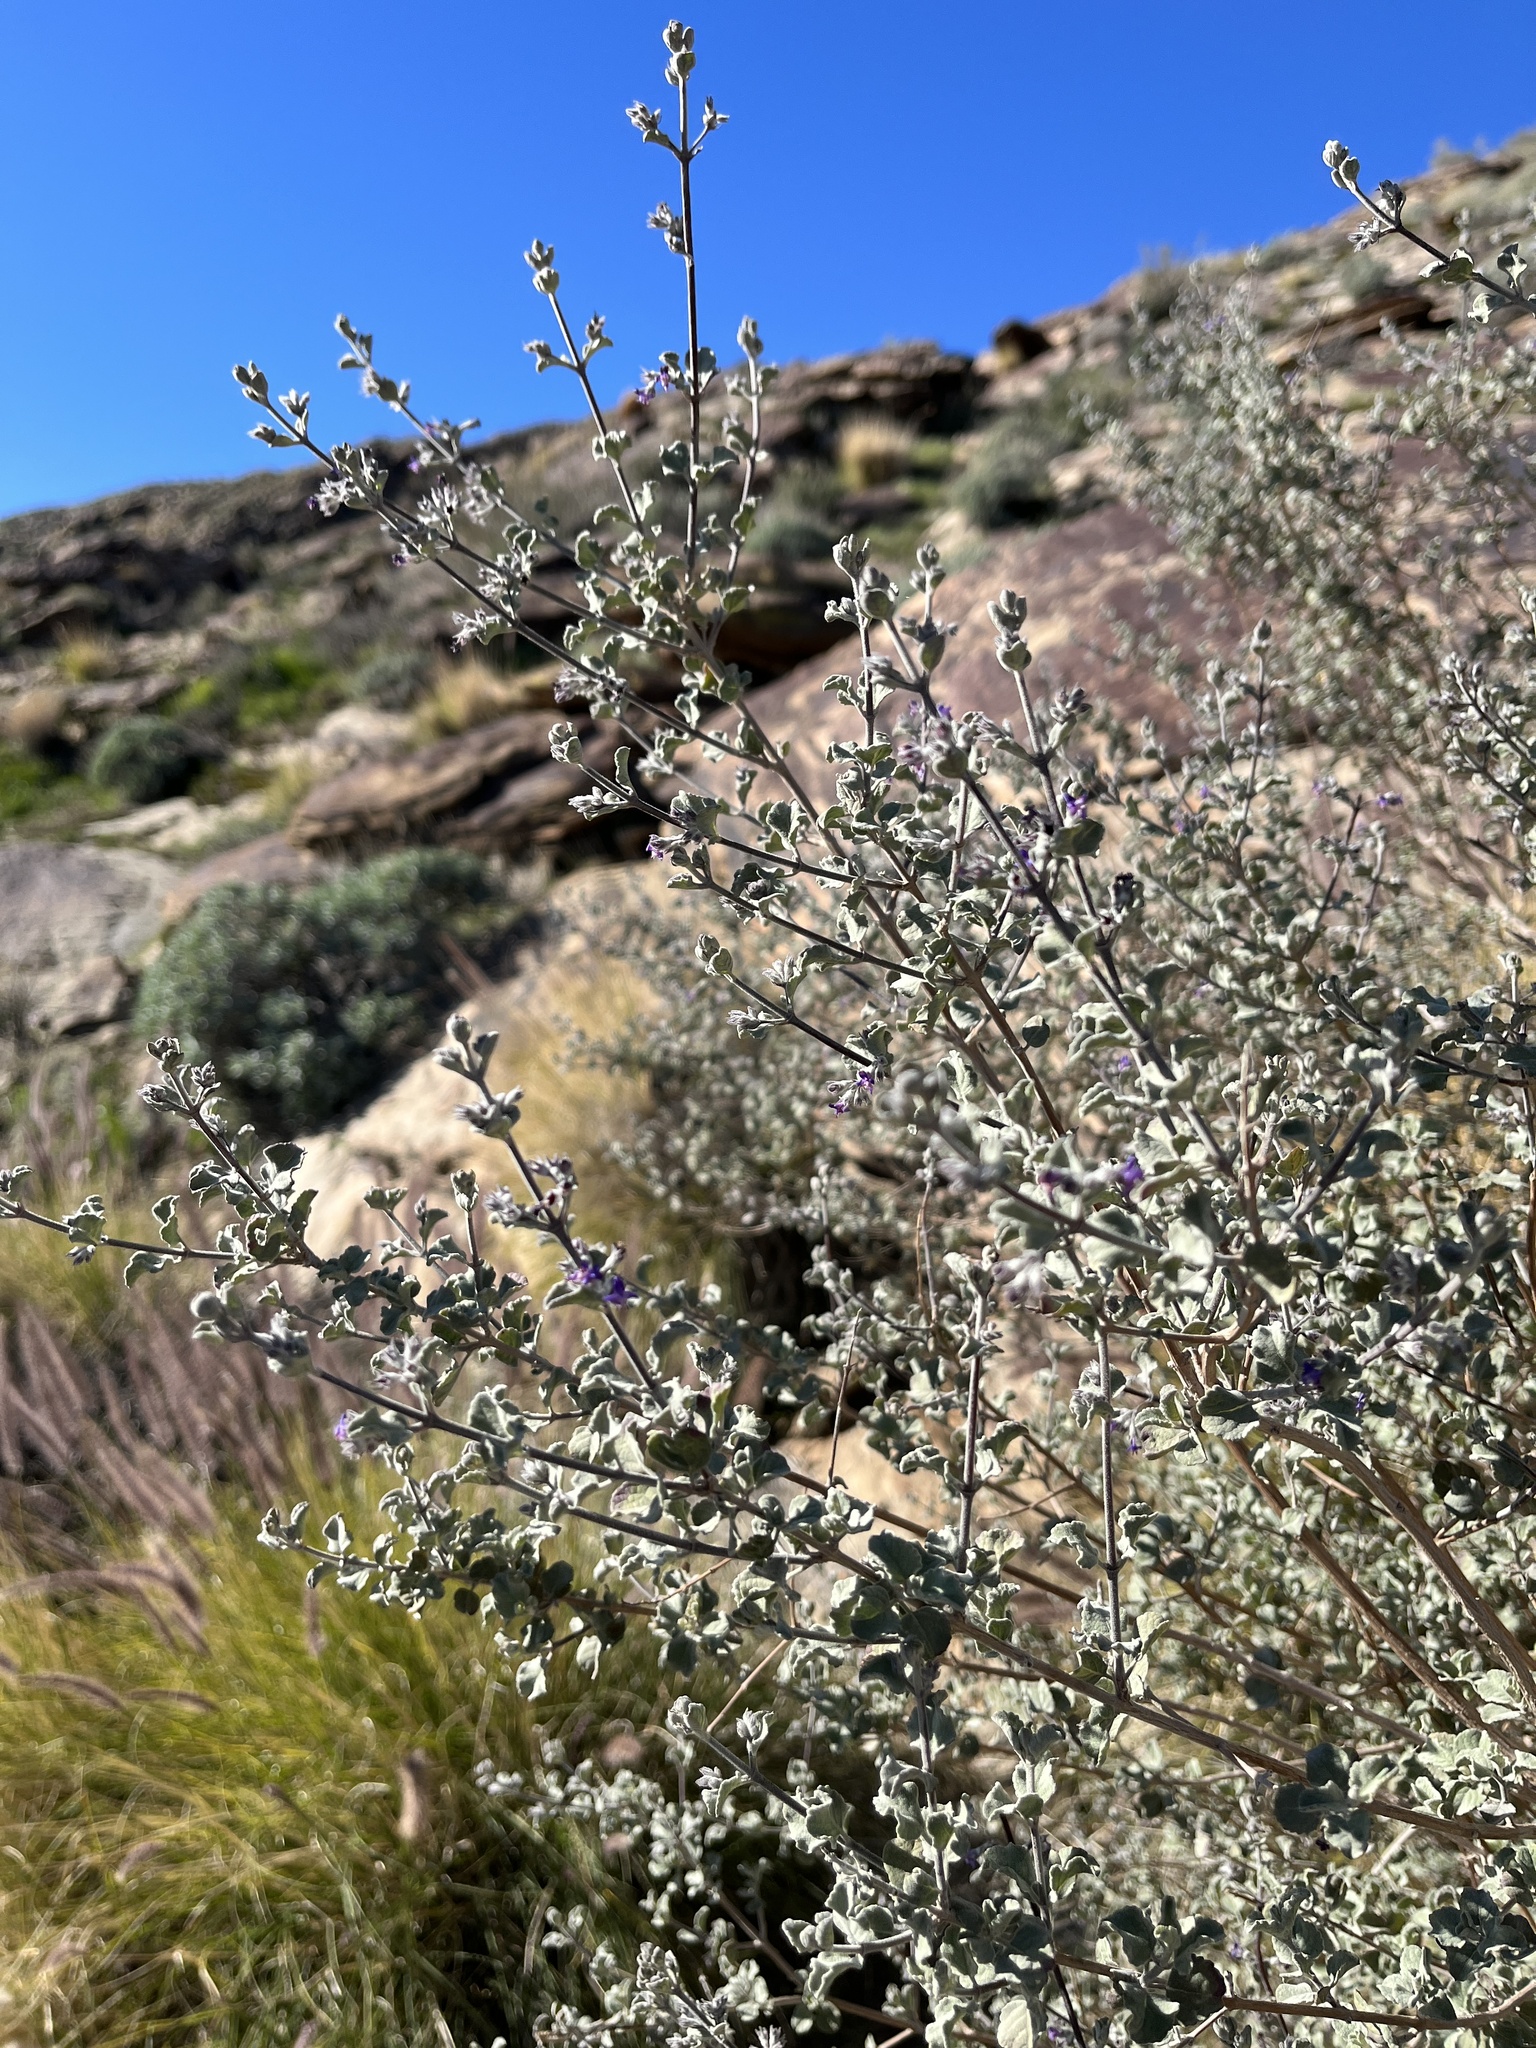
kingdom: Plantae
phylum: Tracheophyta
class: Magnoliopsida
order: Lamiales
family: Lamiaceae
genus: Condea
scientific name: Condea emoryi
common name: Chia
